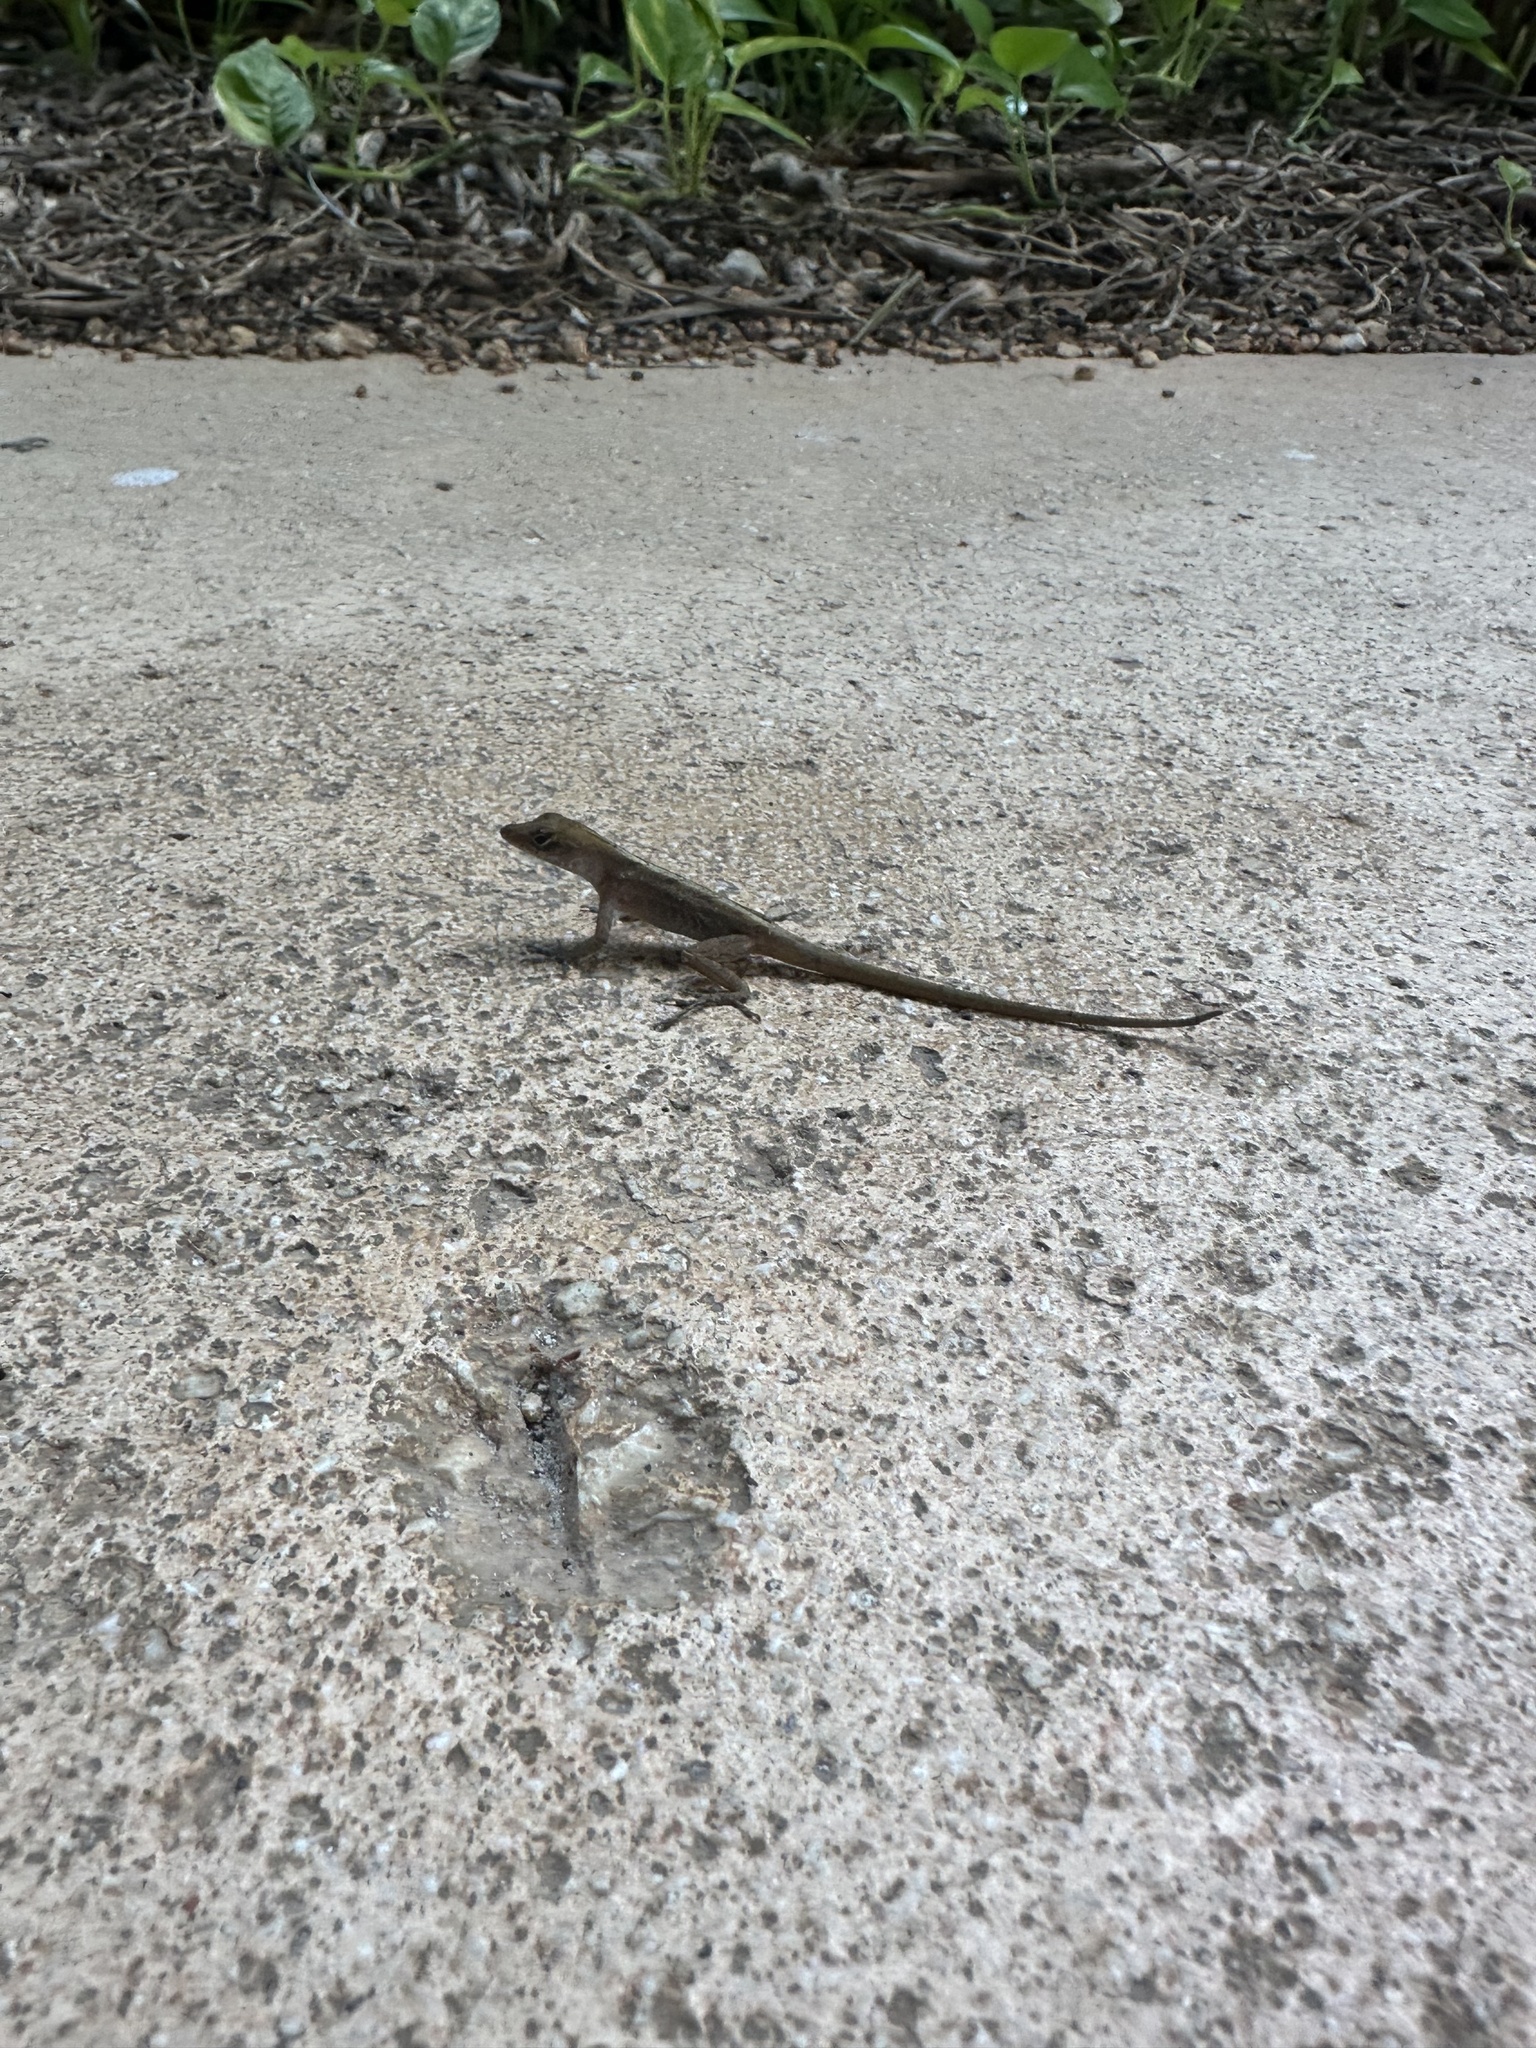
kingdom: Animalia
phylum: Chordata
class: Squamata
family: Dactyloidae
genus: Anolis
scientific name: Anolis sagrei
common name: Brown anole
